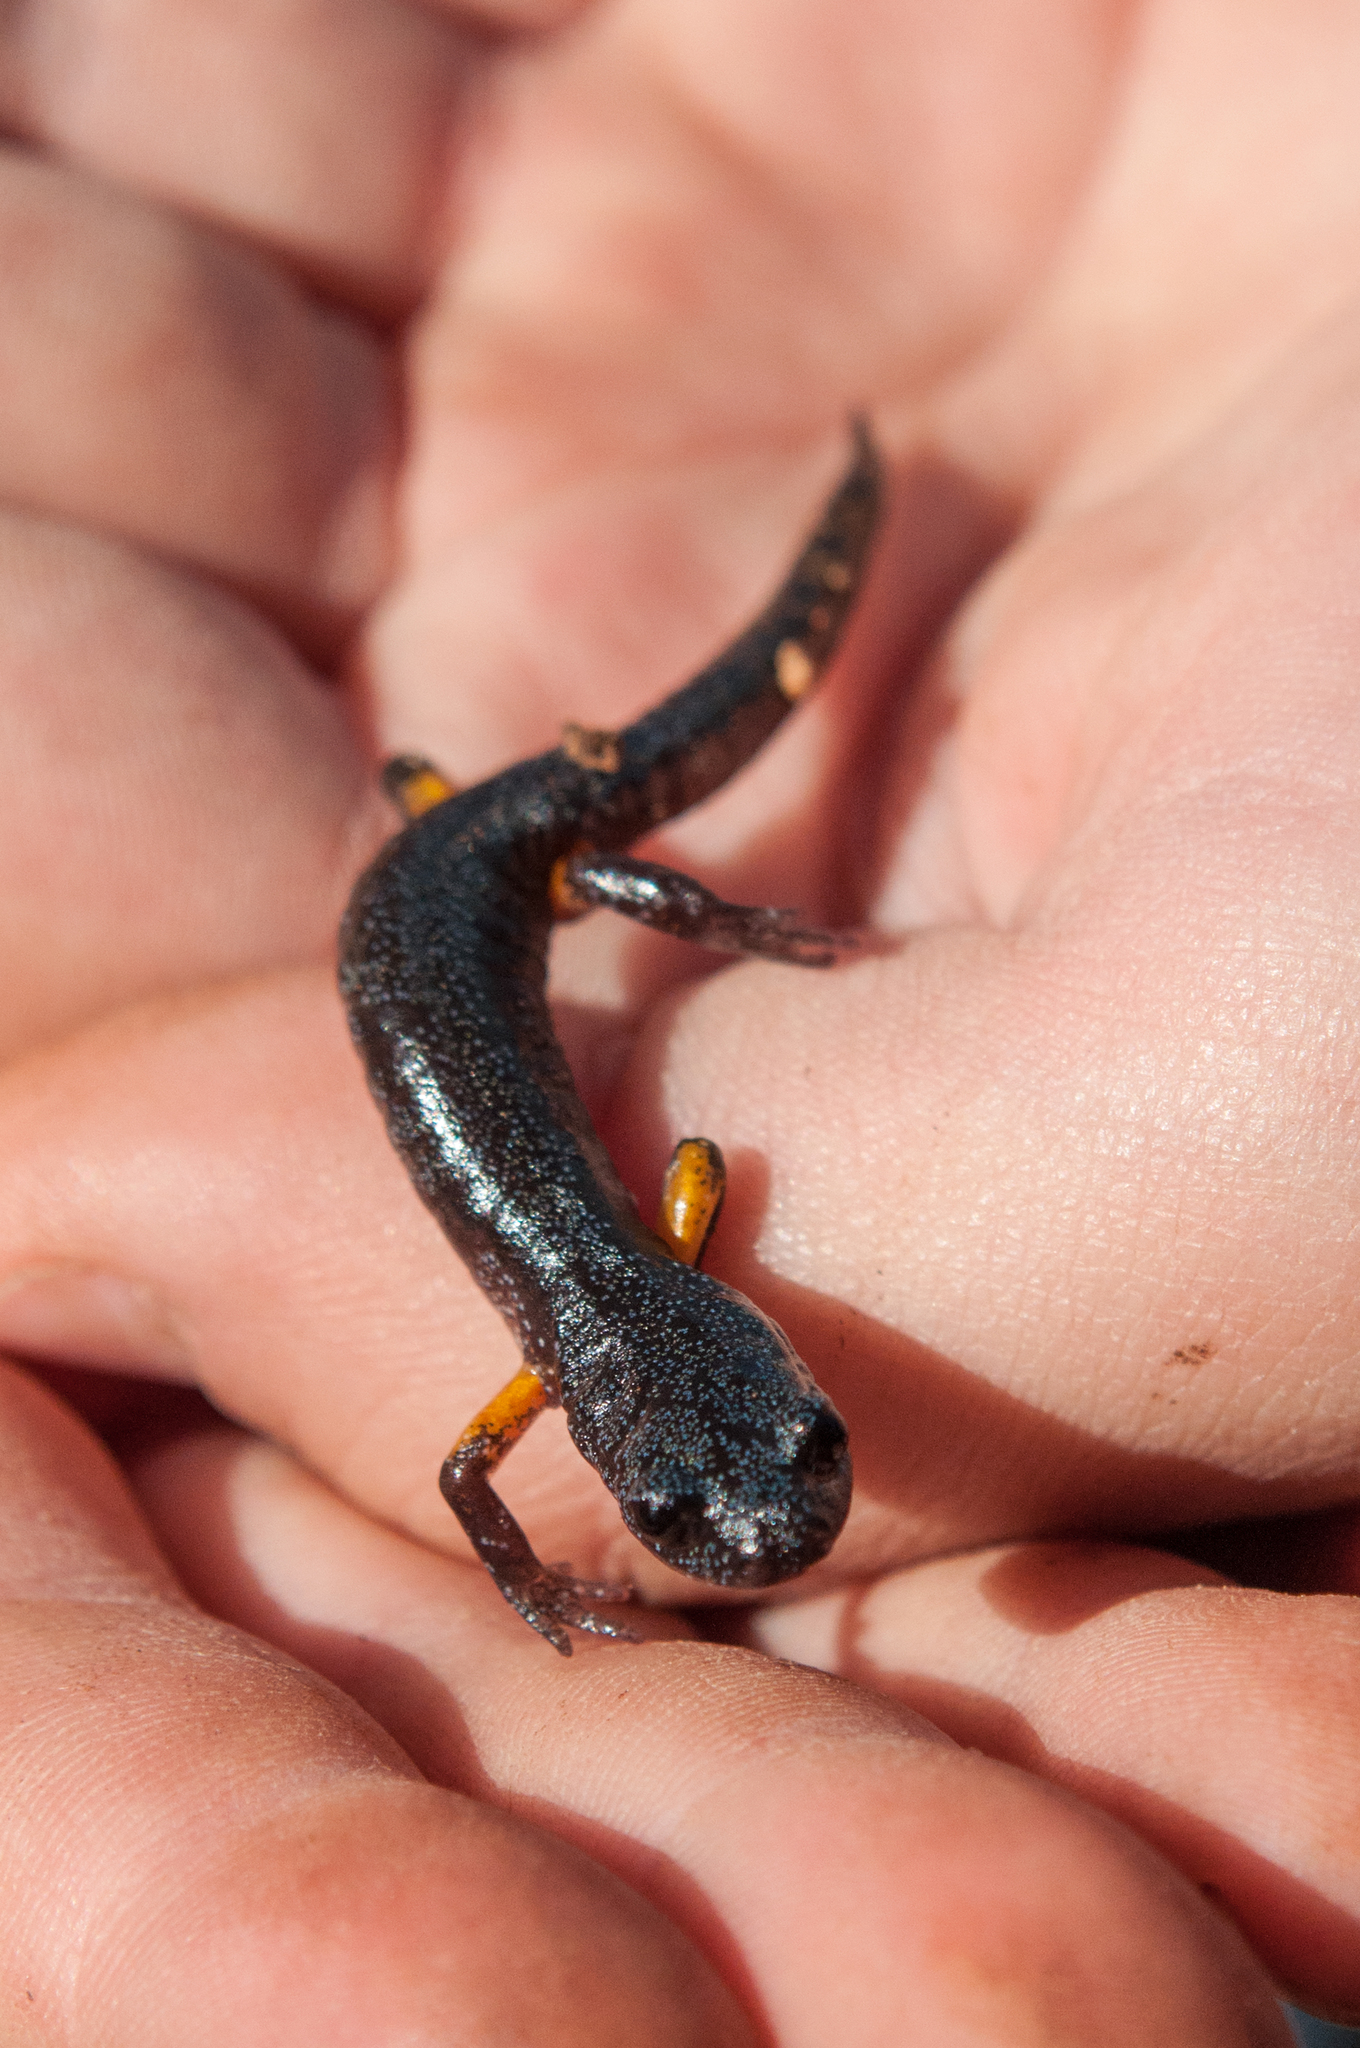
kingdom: Animalia
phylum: Chordata
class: Amphibia
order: Caudata
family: Plethodontidae
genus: Ensatina
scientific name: Ensatina eschscholtzii
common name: Ensatina
